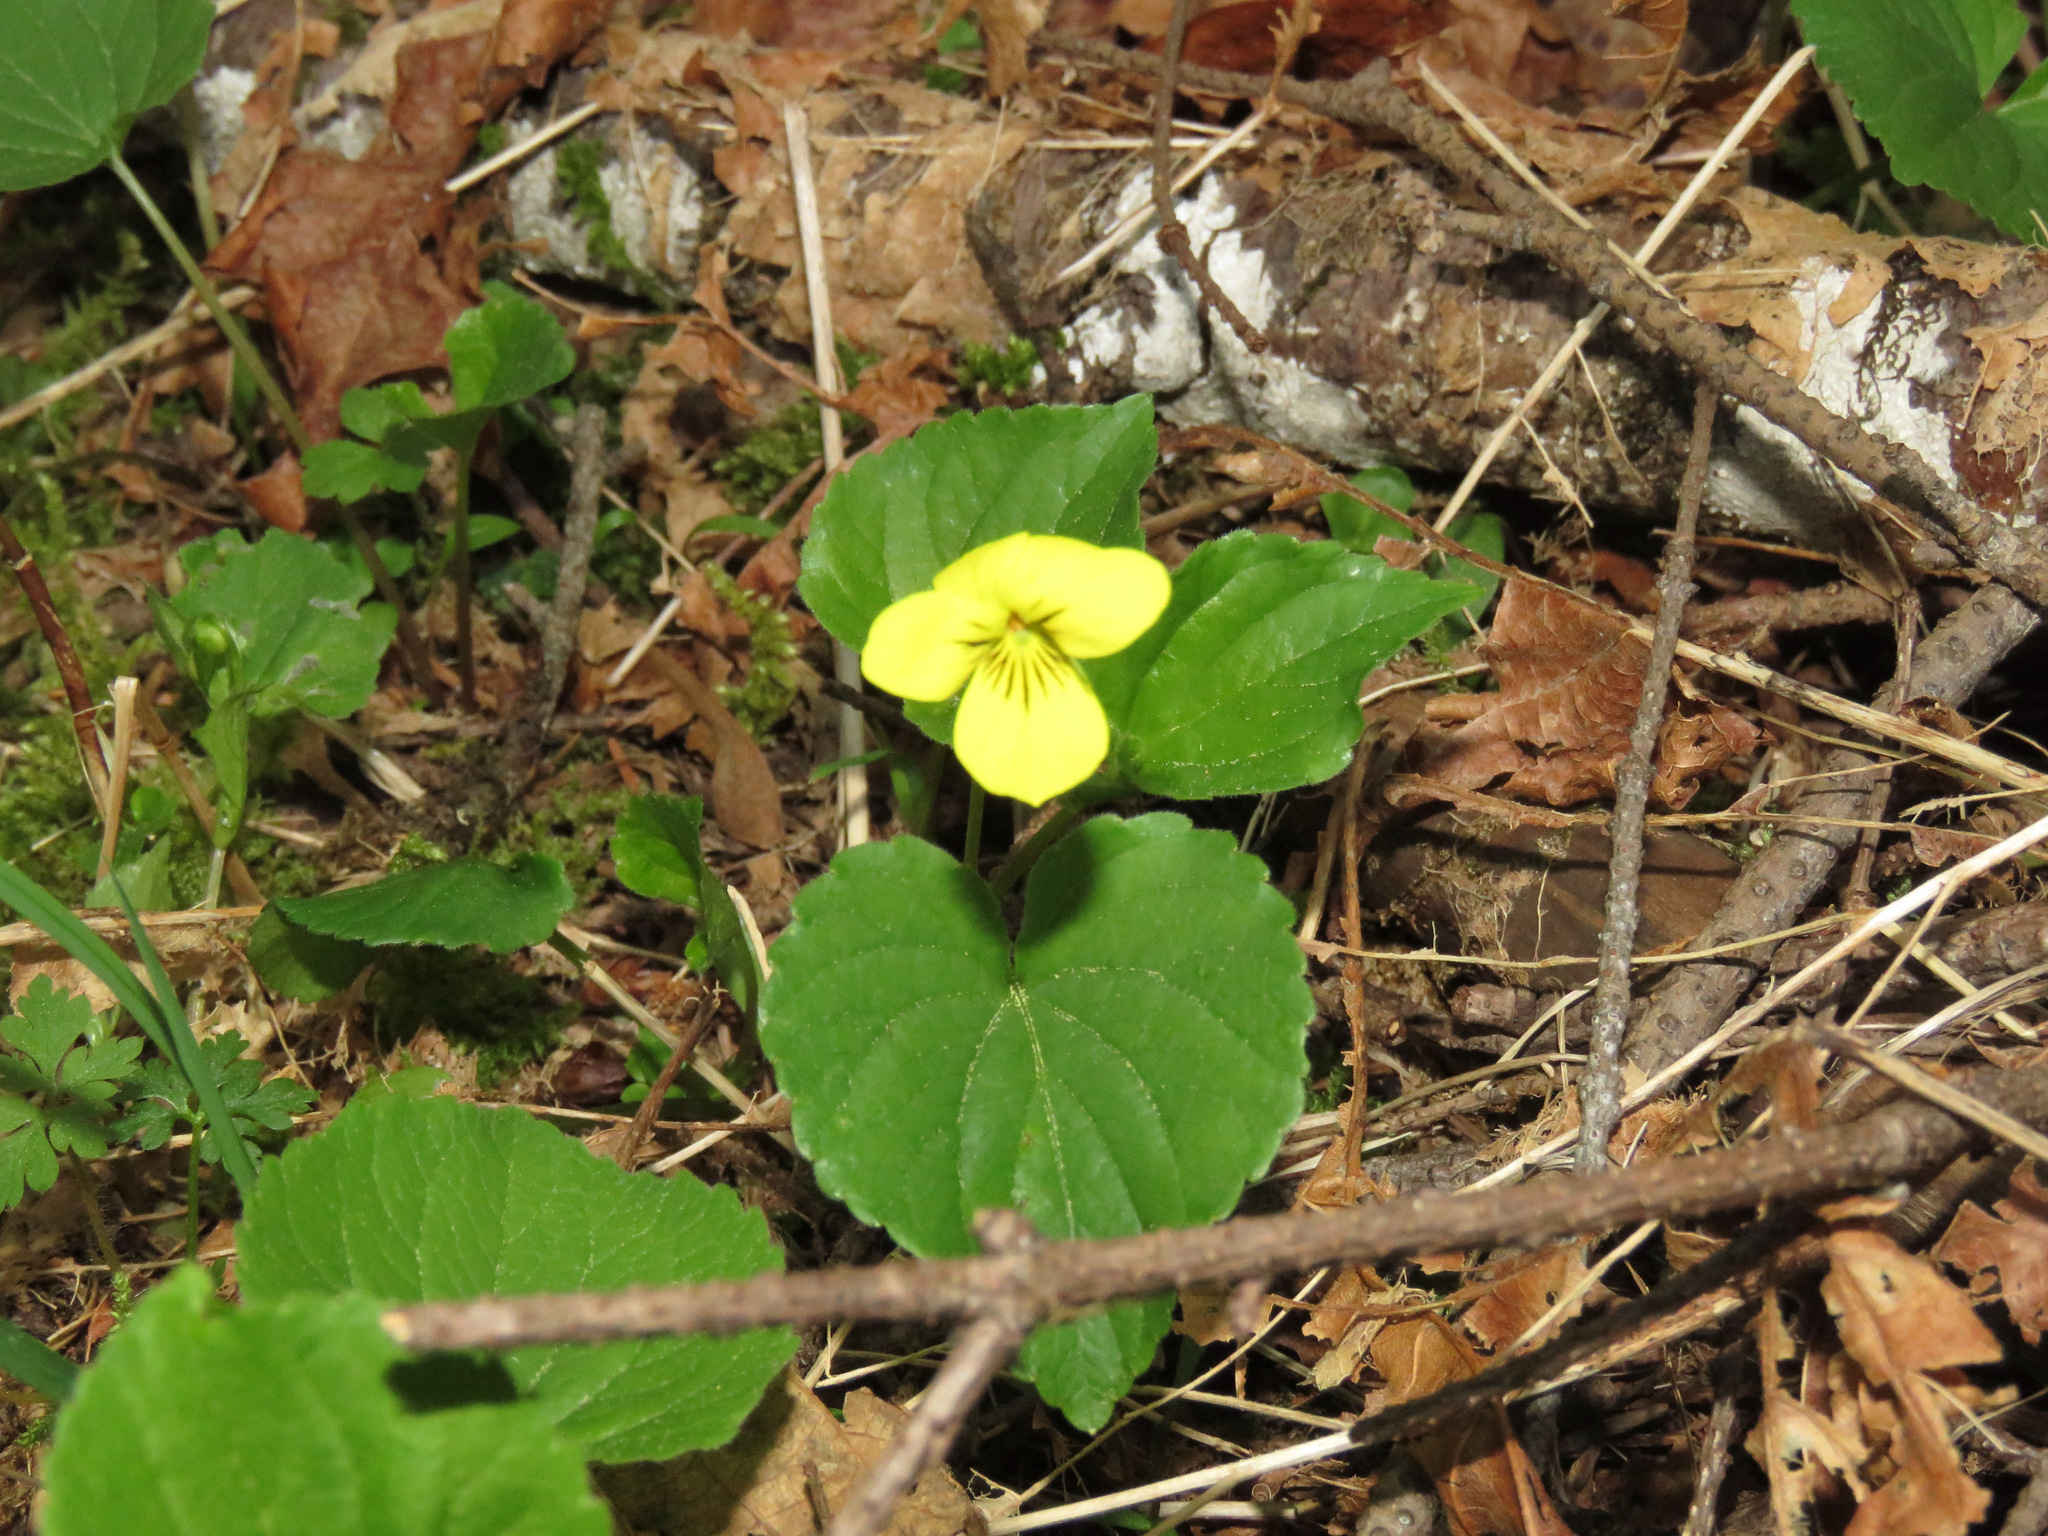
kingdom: Plantae
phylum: Tracheophyta
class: Magnoliopsida
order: Malpighiales
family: Violaceae
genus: Viola
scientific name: Viola glabella
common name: Stream violet
